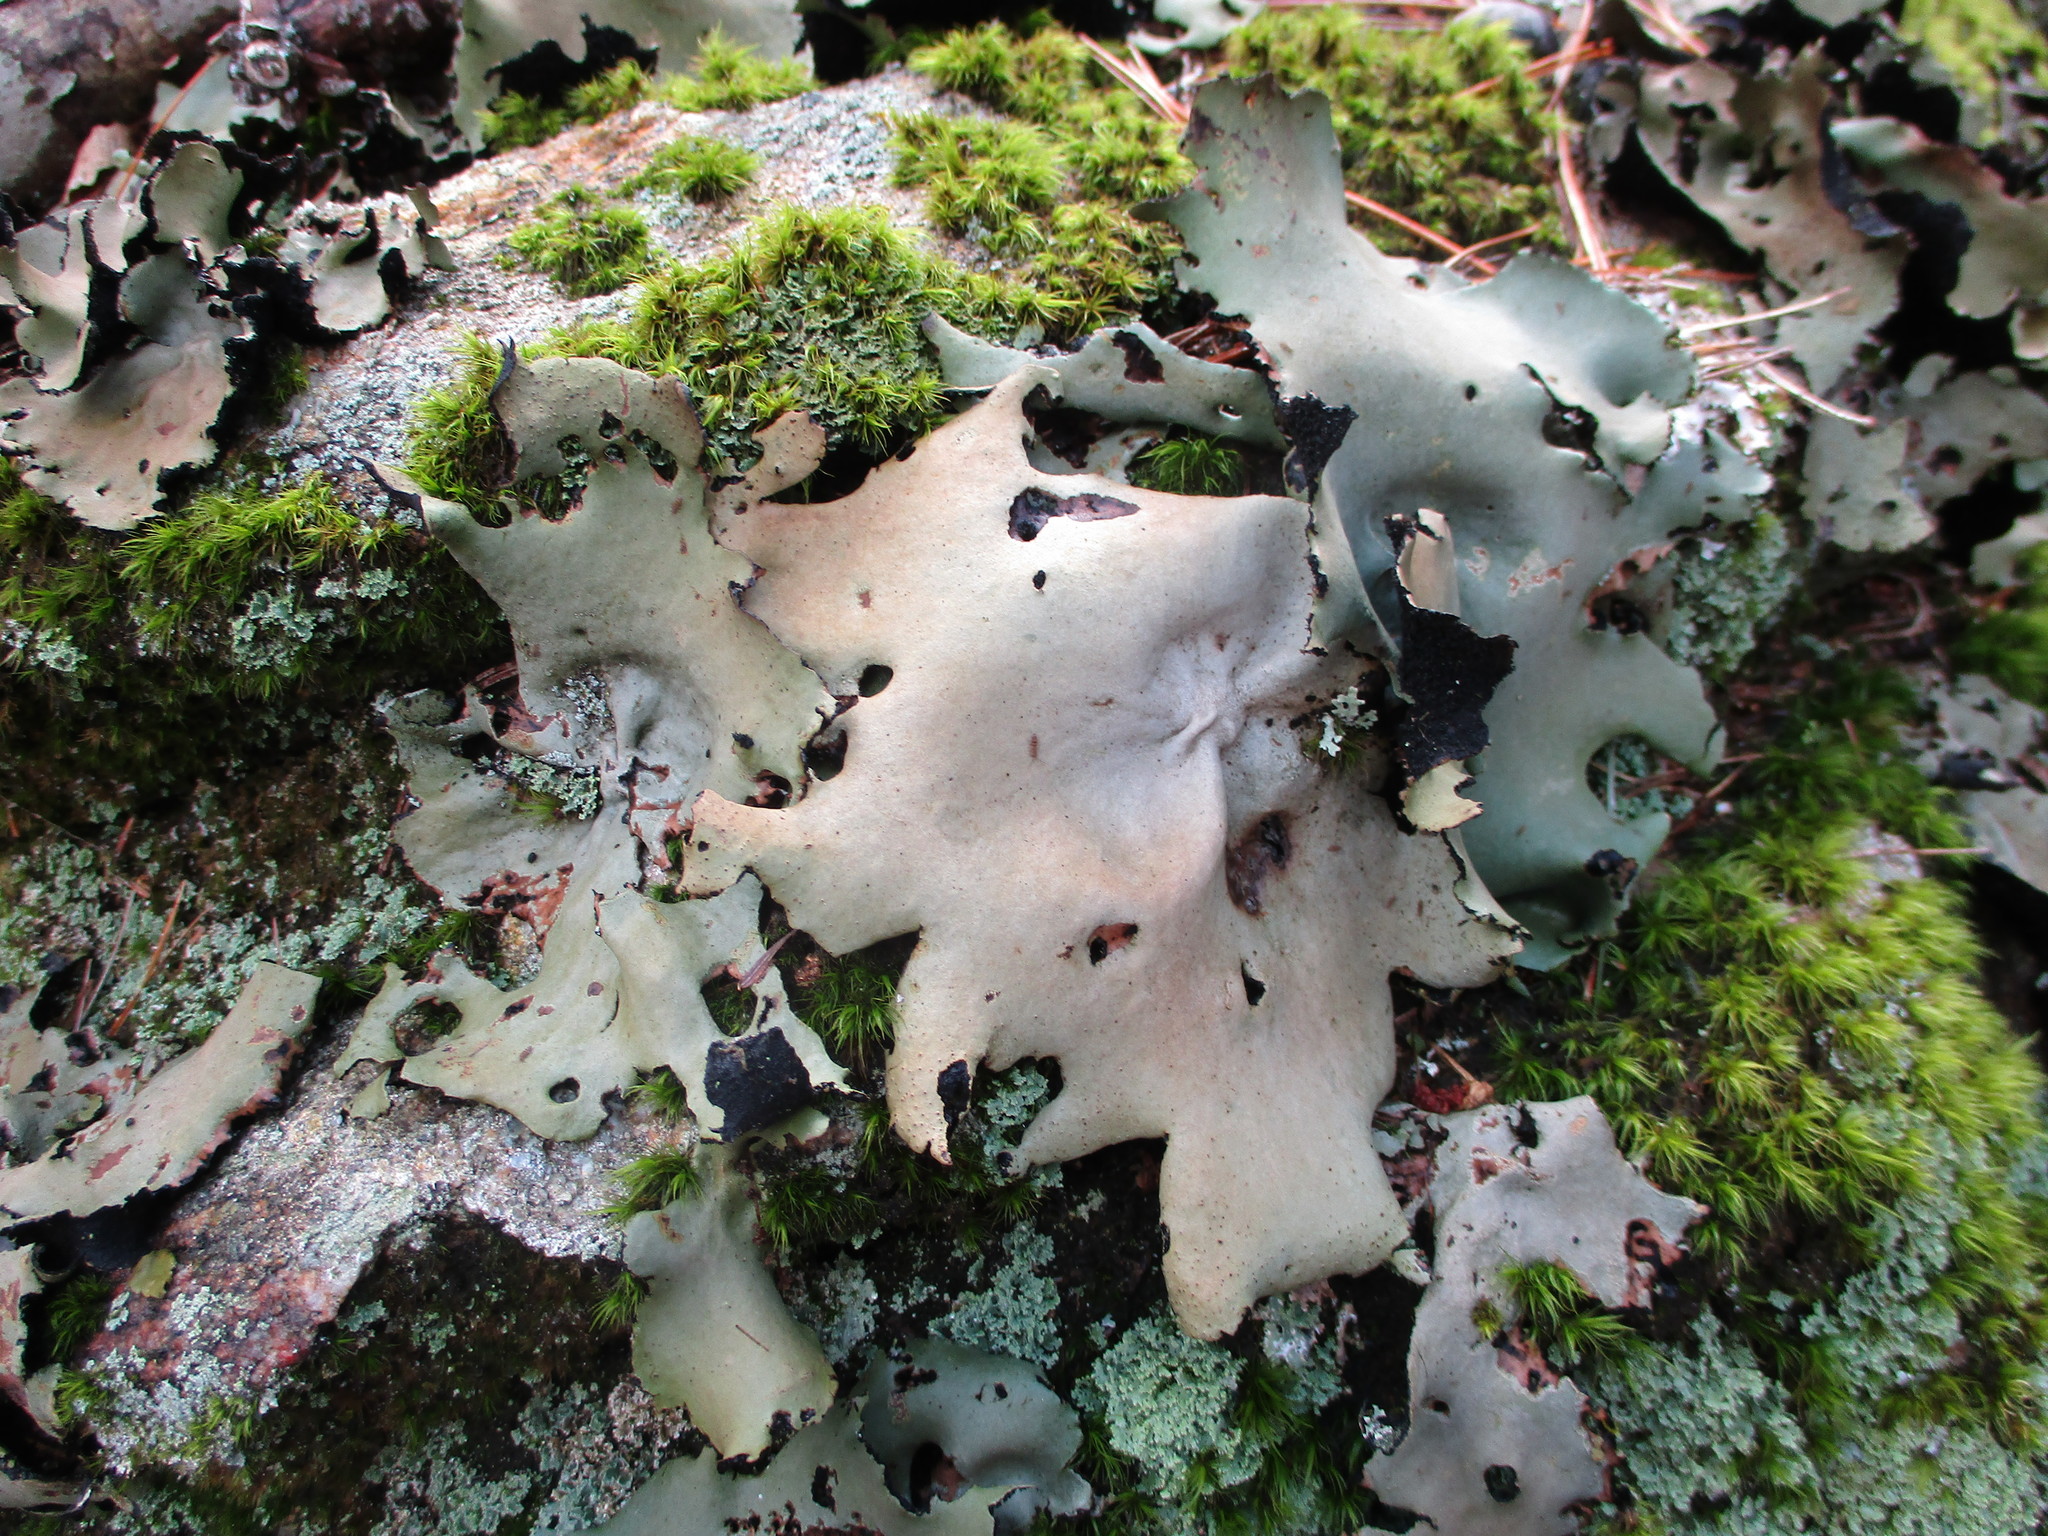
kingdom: Fungi
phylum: Ascomycota
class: Lecanoromycetes
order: Umbilicariales
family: Umbilicariaceae
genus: Umbilicaria
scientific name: Umbilicaria mammulata
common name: Smooth rock tripe
